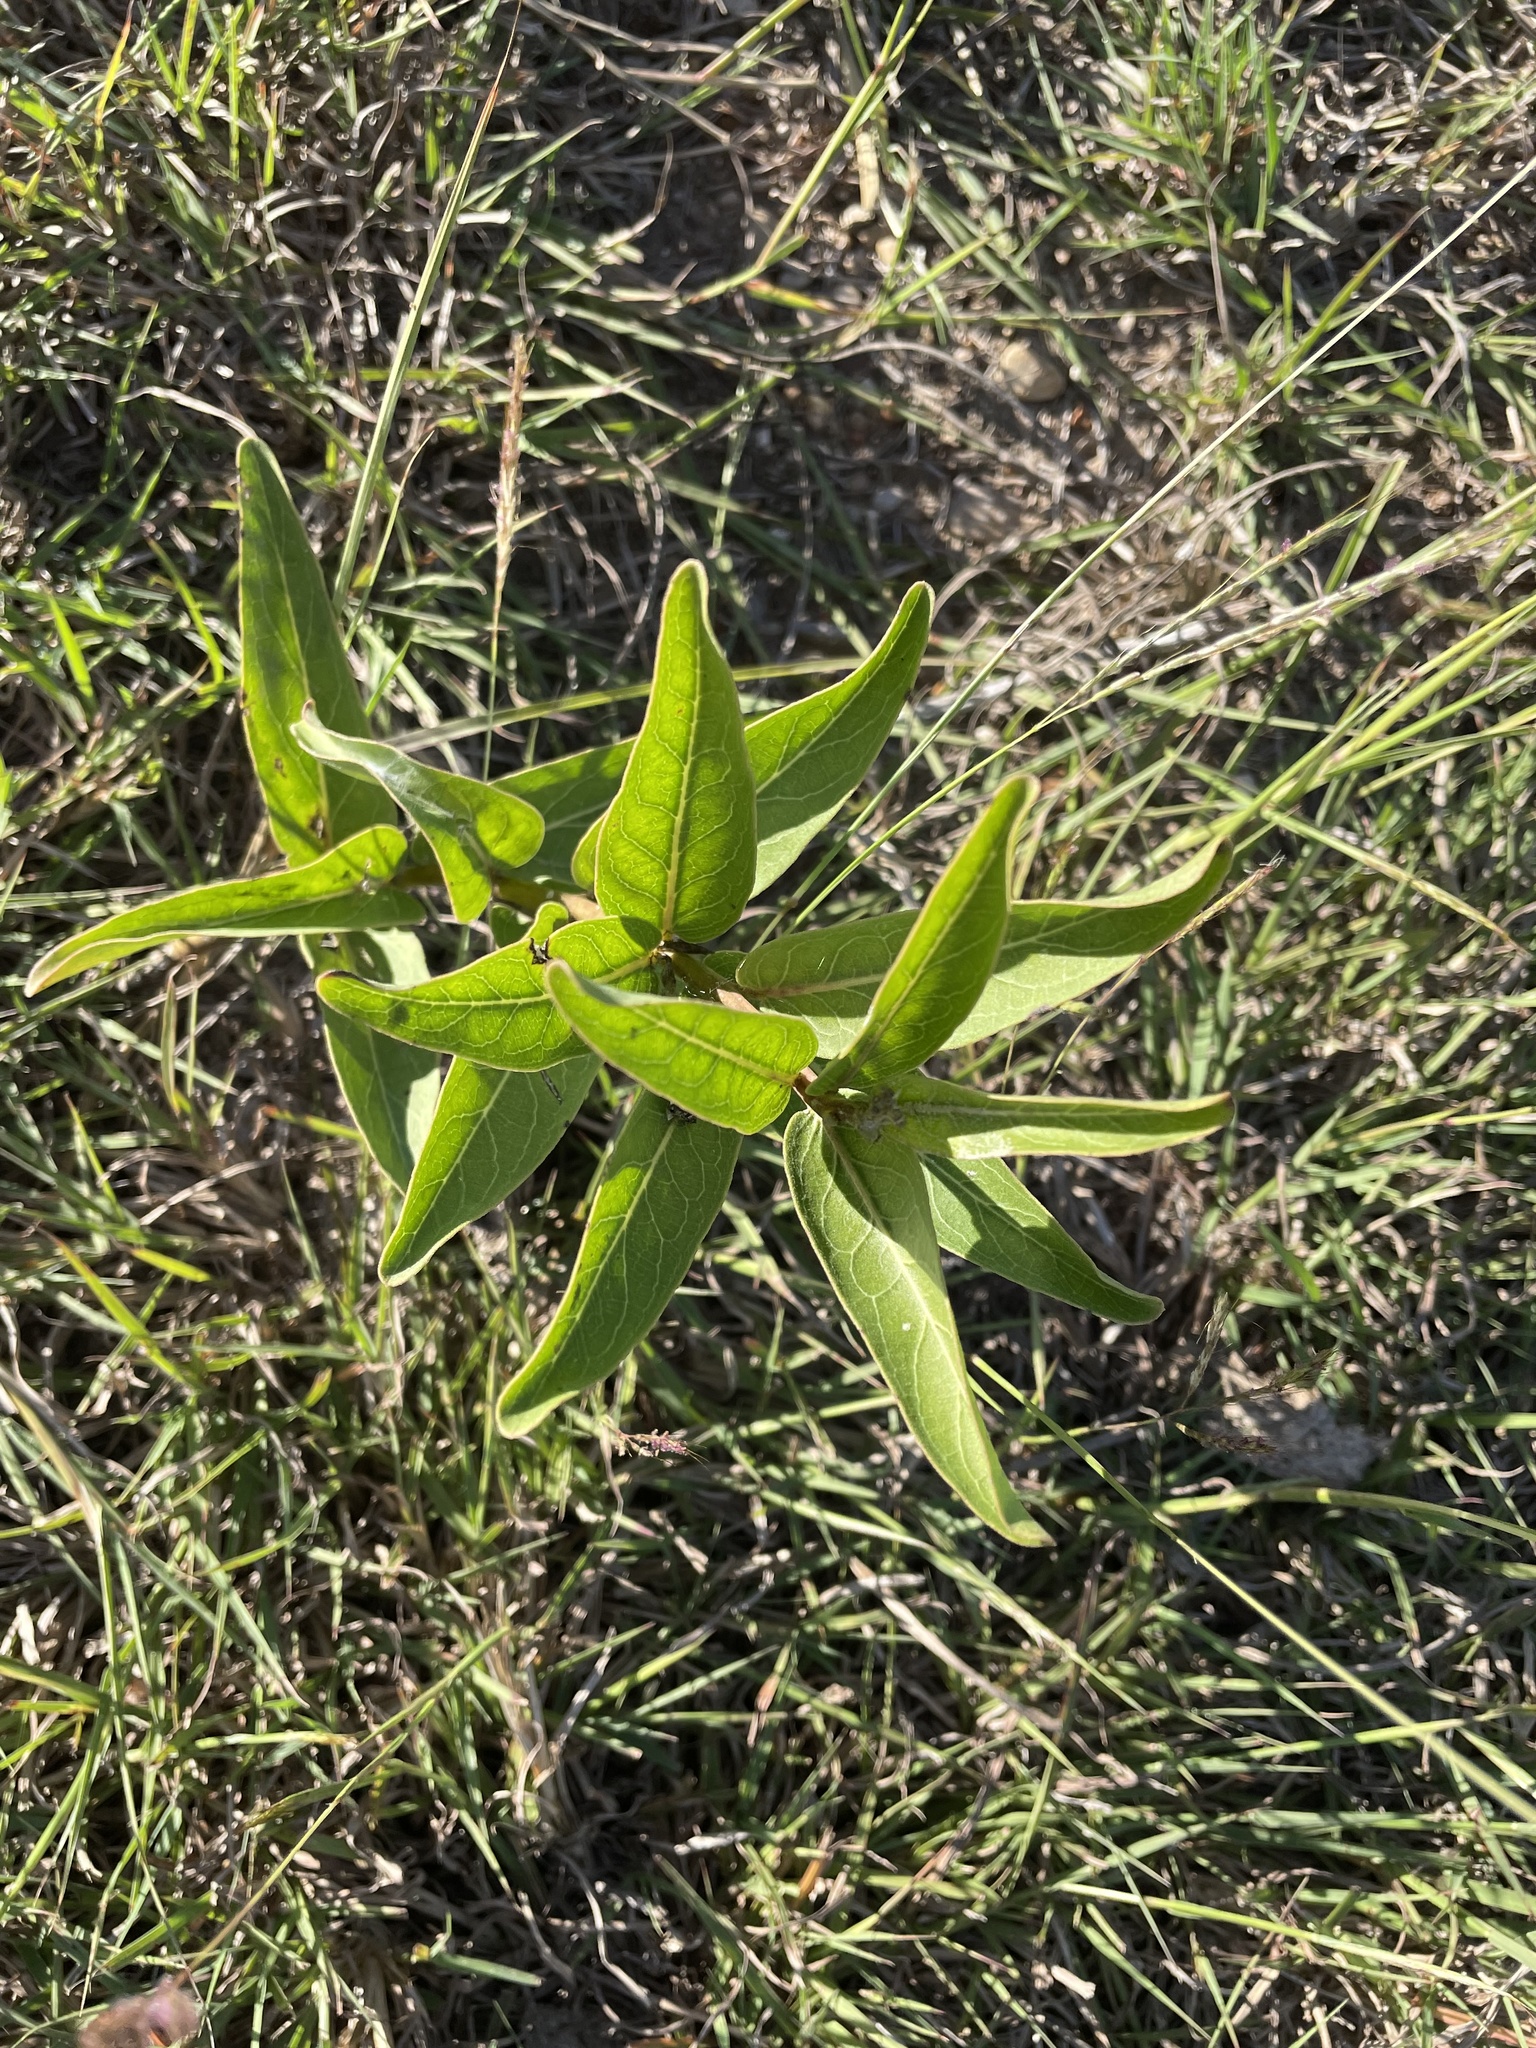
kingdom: Plantae
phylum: Tracheophyta
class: Magnoliopsida
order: Gentianales
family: Apocynaceae
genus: Asclepias
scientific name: Asclepias viridis
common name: Antelope-horns
